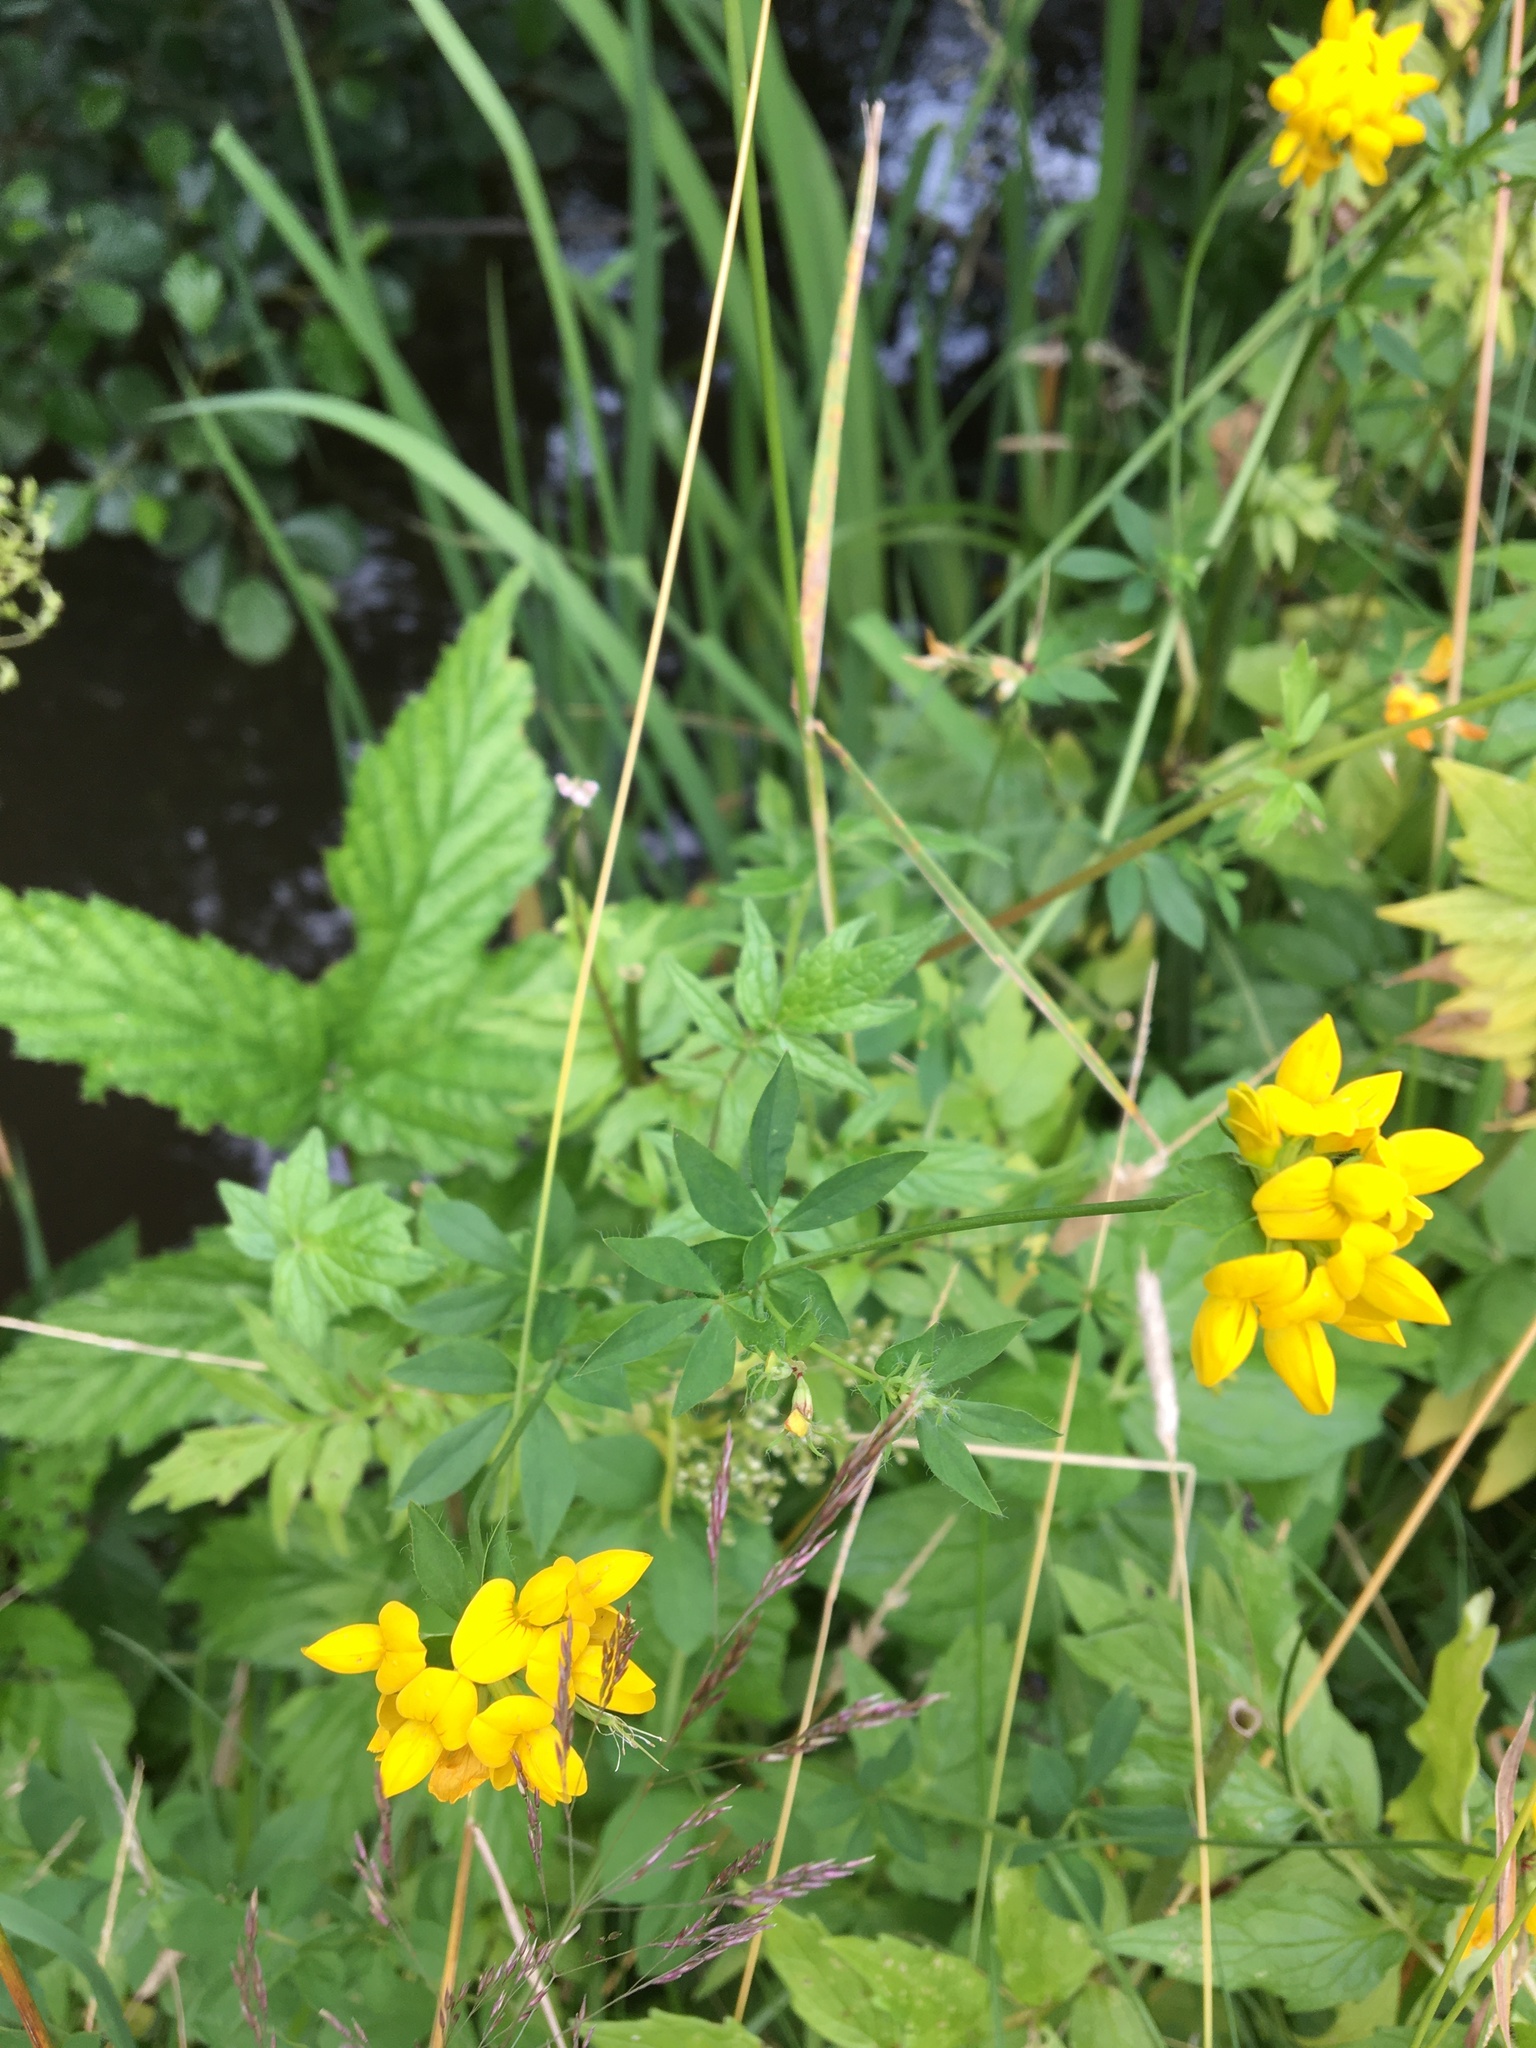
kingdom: Plantae
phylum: Tracheophyta
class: Magnoliopsida
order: Fabales
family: Fabaceae
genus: Lotus
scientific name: Lotus pedunculatus
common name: Greater birdsfoot-trefoil
